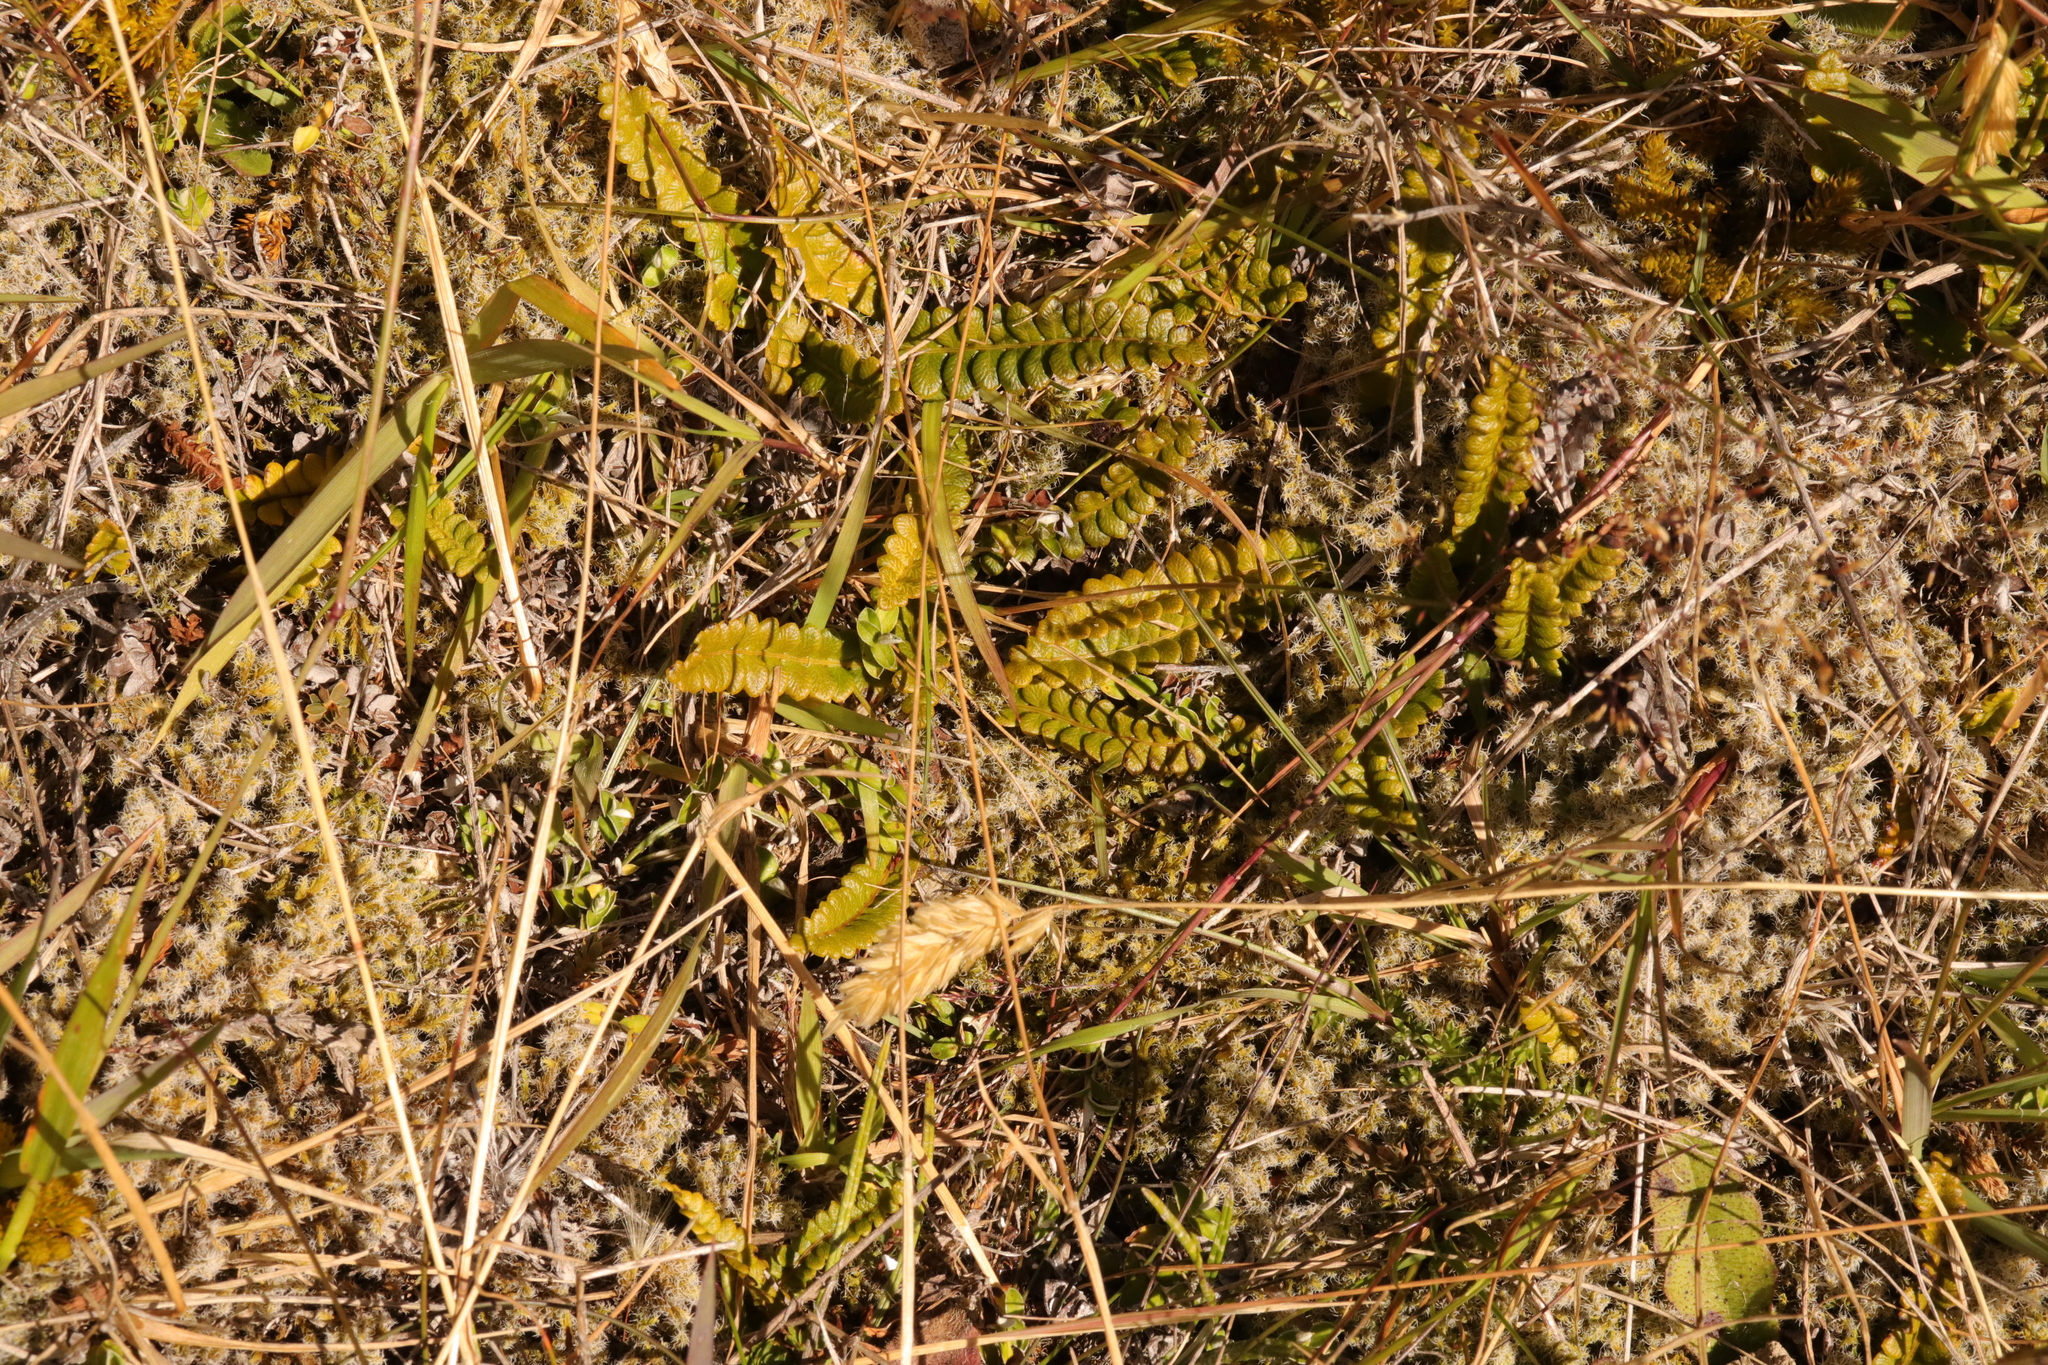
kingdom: Plantae
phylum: Tracheophyta
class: Polypodiopsida
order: Polypodiales
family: Blechnaceae
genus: Austroblechnum
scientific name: Austroblechnum penna-marina
